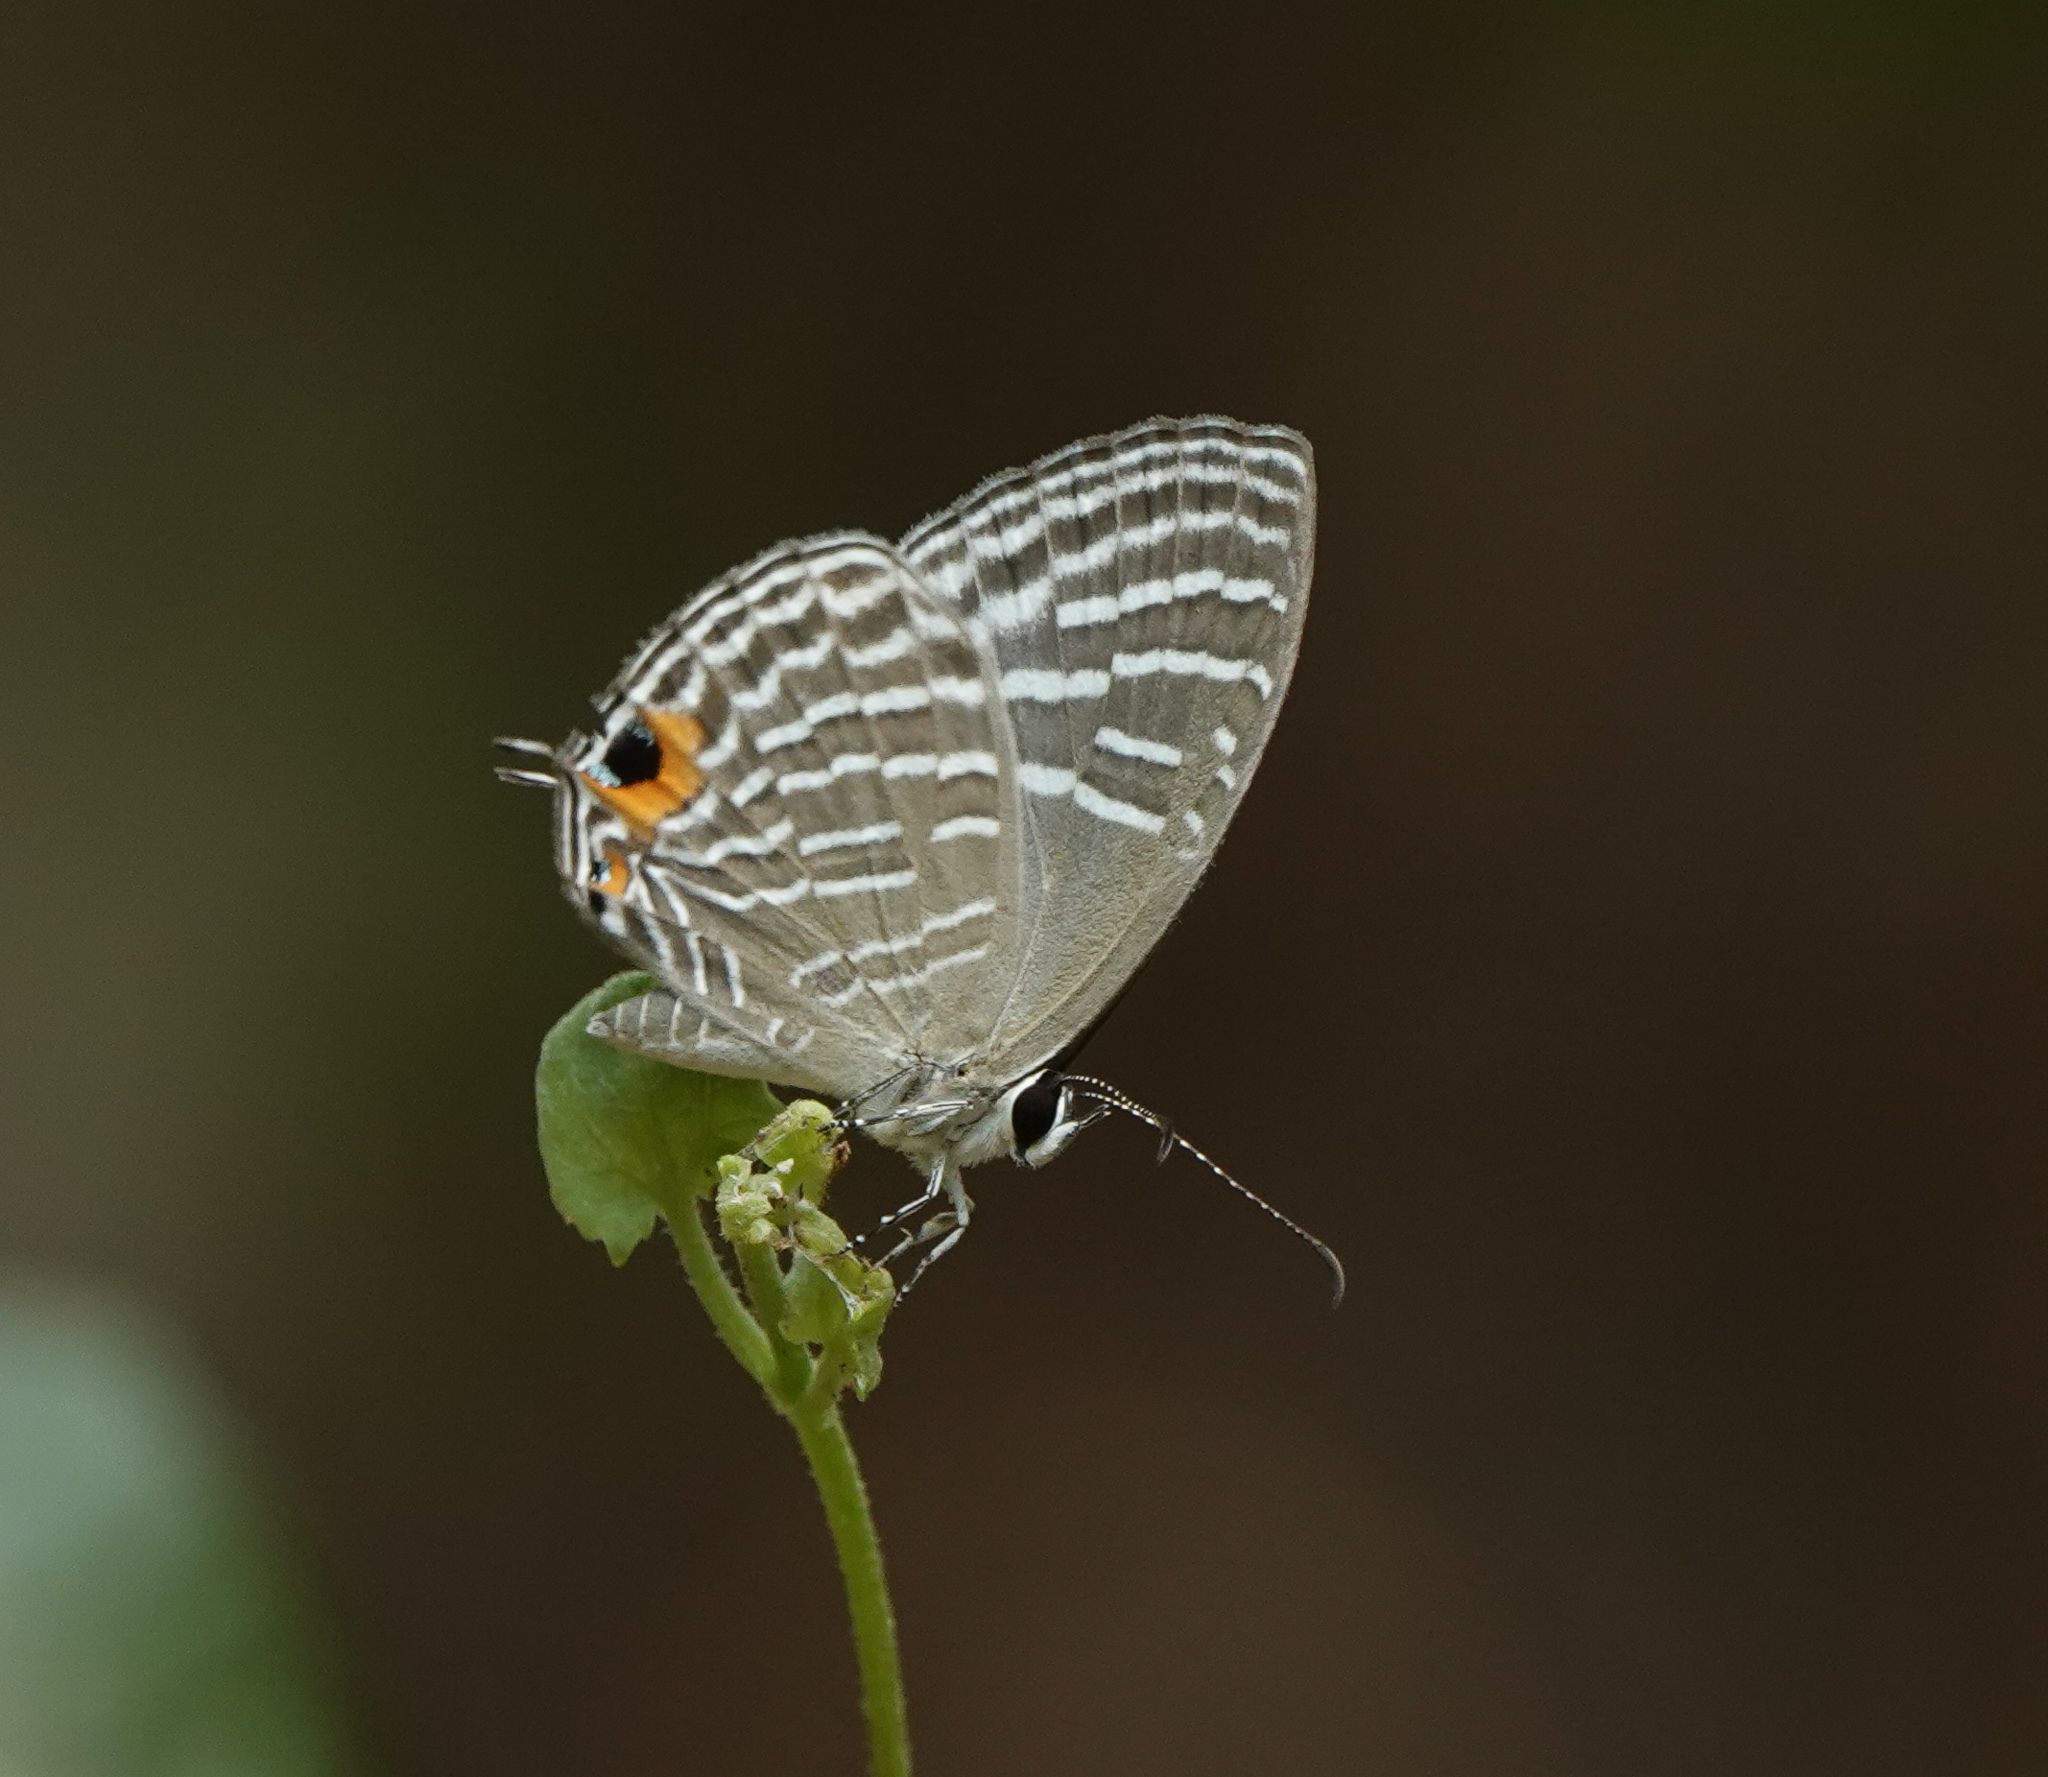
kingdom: Animalia
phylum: Arthropoda
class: Insecta
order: Lepidoptera
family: Lycaenidae
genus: Jamides
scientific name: Jamides alecto
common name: Metallic cerulean
